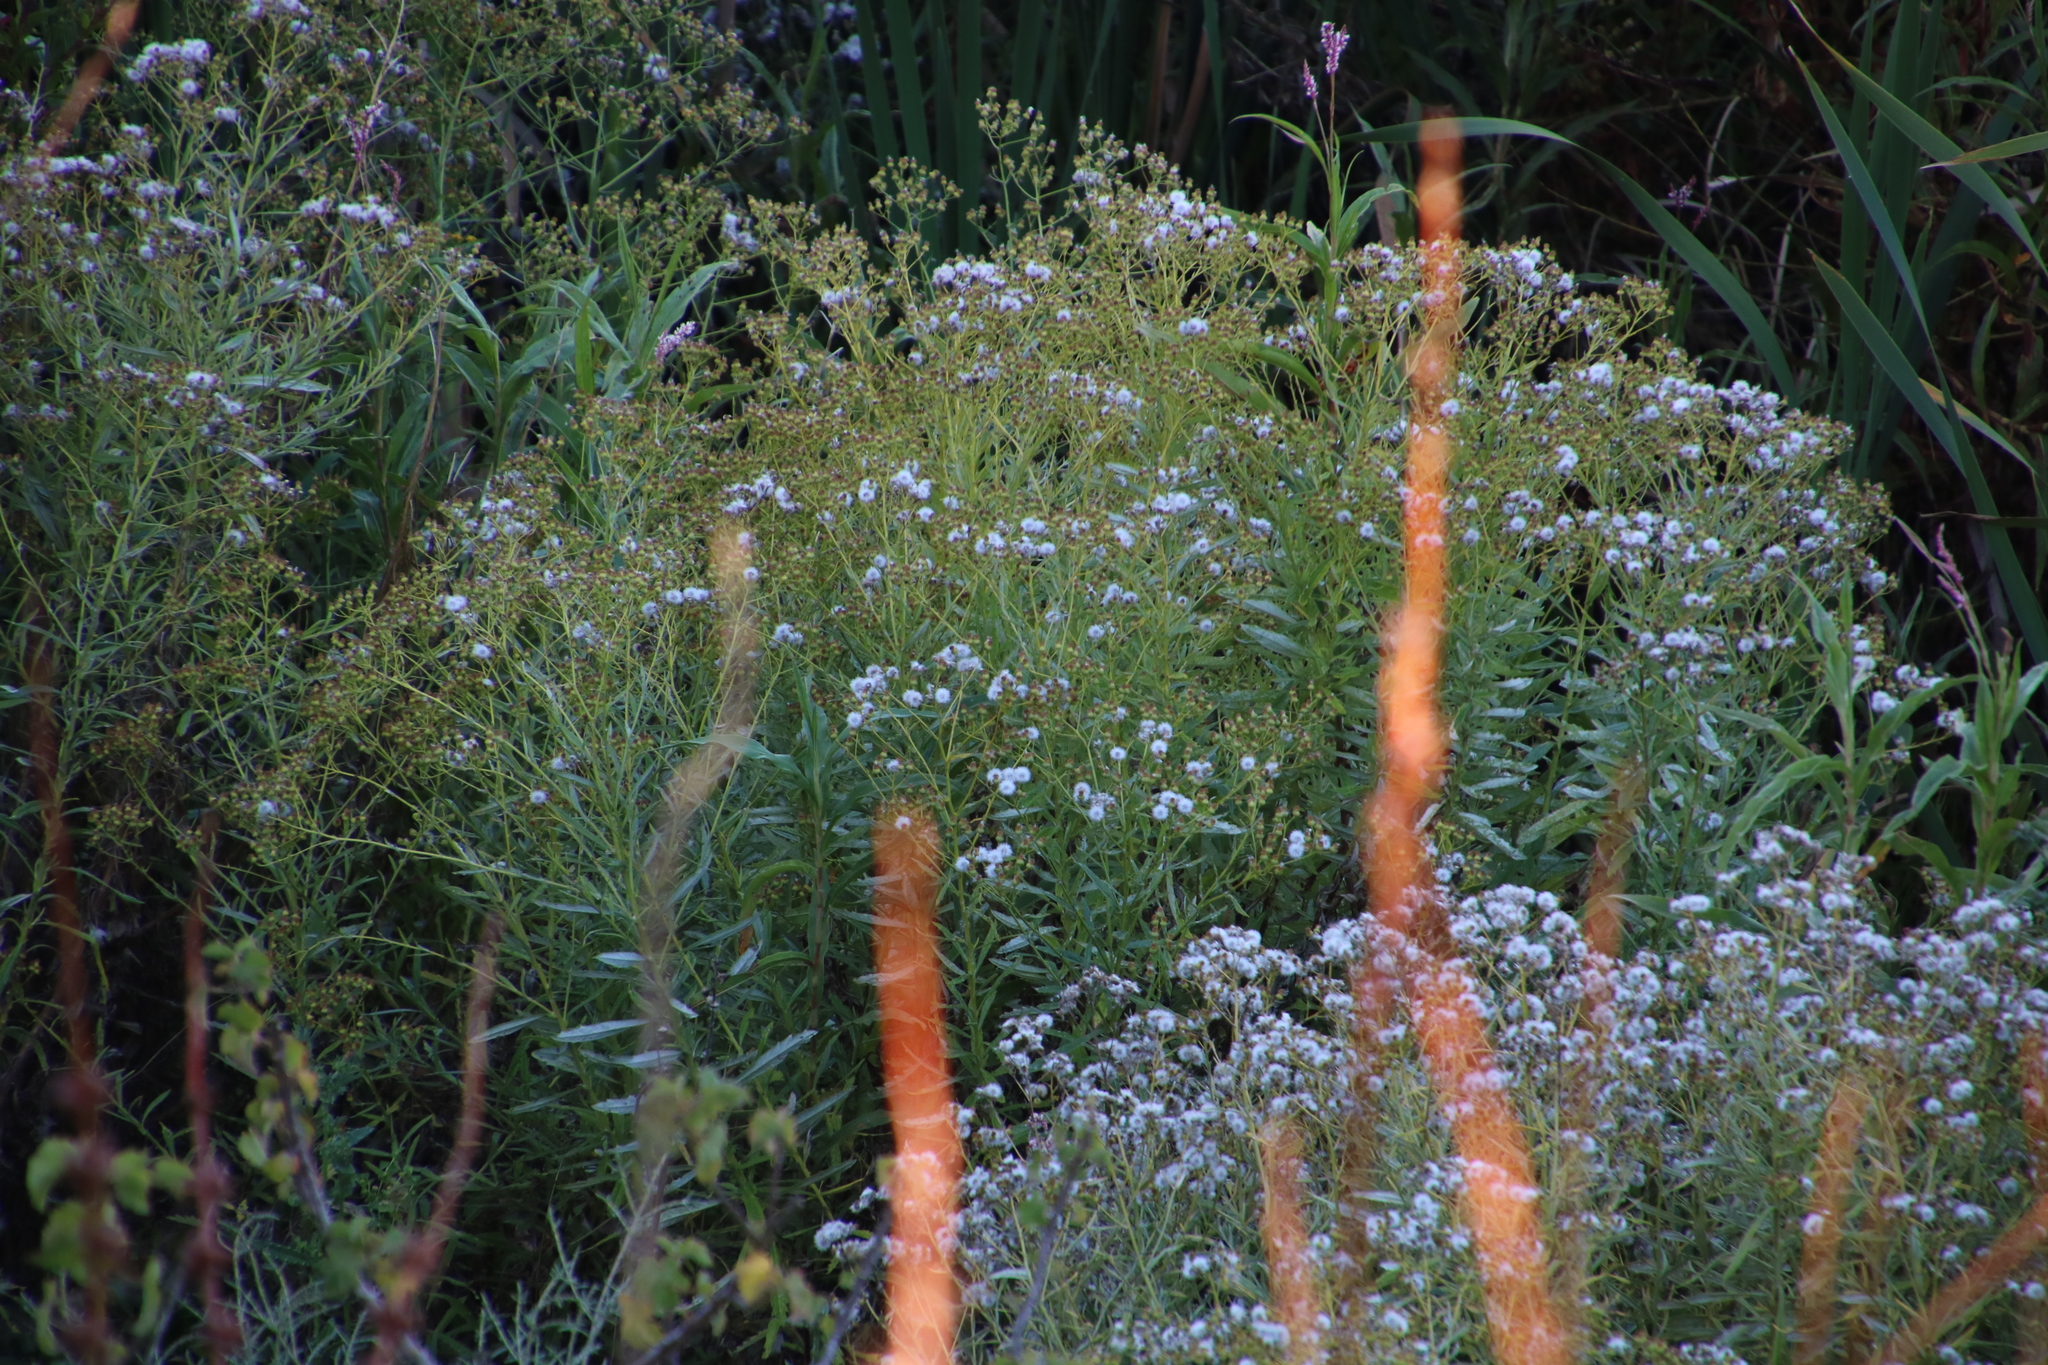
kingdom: Plantae
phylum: Tracheophyta
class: Magnoliopsida
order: Asterales
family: Asteraceae
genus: Senecio
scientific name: Senecio pterophorus
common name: Shoddy ragwort
